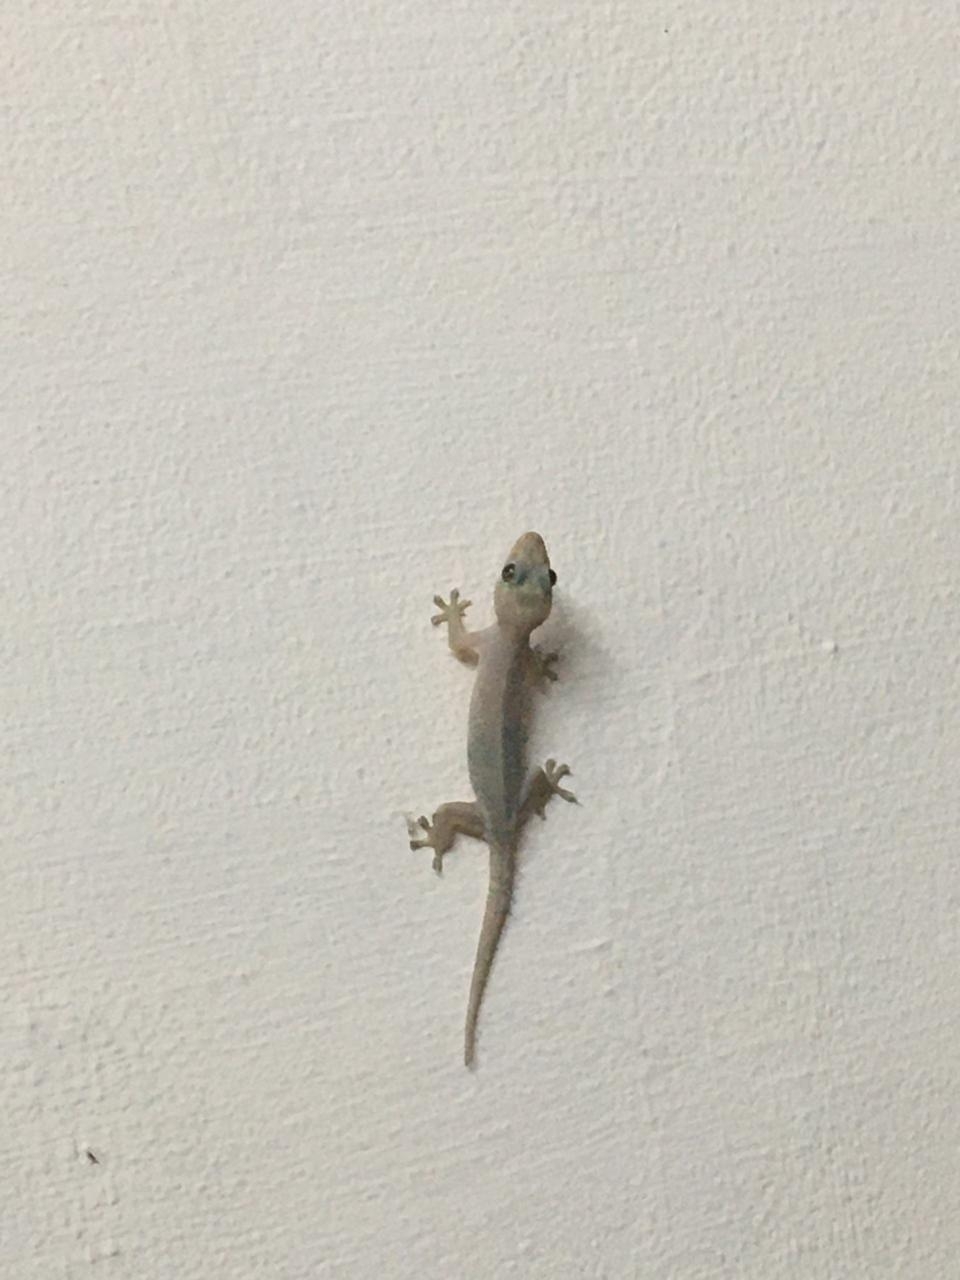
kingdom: Animalia
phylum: Chordata
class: Squamata
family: Gekkonidae
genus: Hemidactylus
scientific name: Hemidactylus frenatus
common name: Common house gecko
